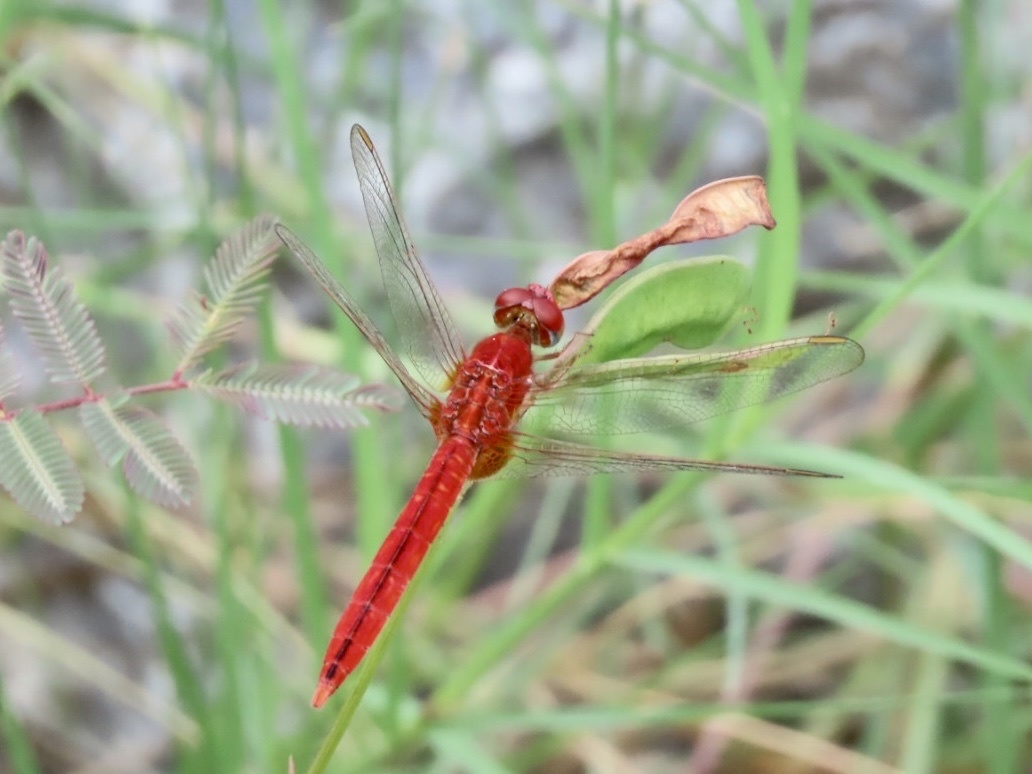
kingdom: Animalia
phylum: Arthropoda
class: Insecta
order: Odonata
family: Libellulidae
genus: Crocothemis
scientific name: Crocothemis servilia
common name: Scarlet skimmer
